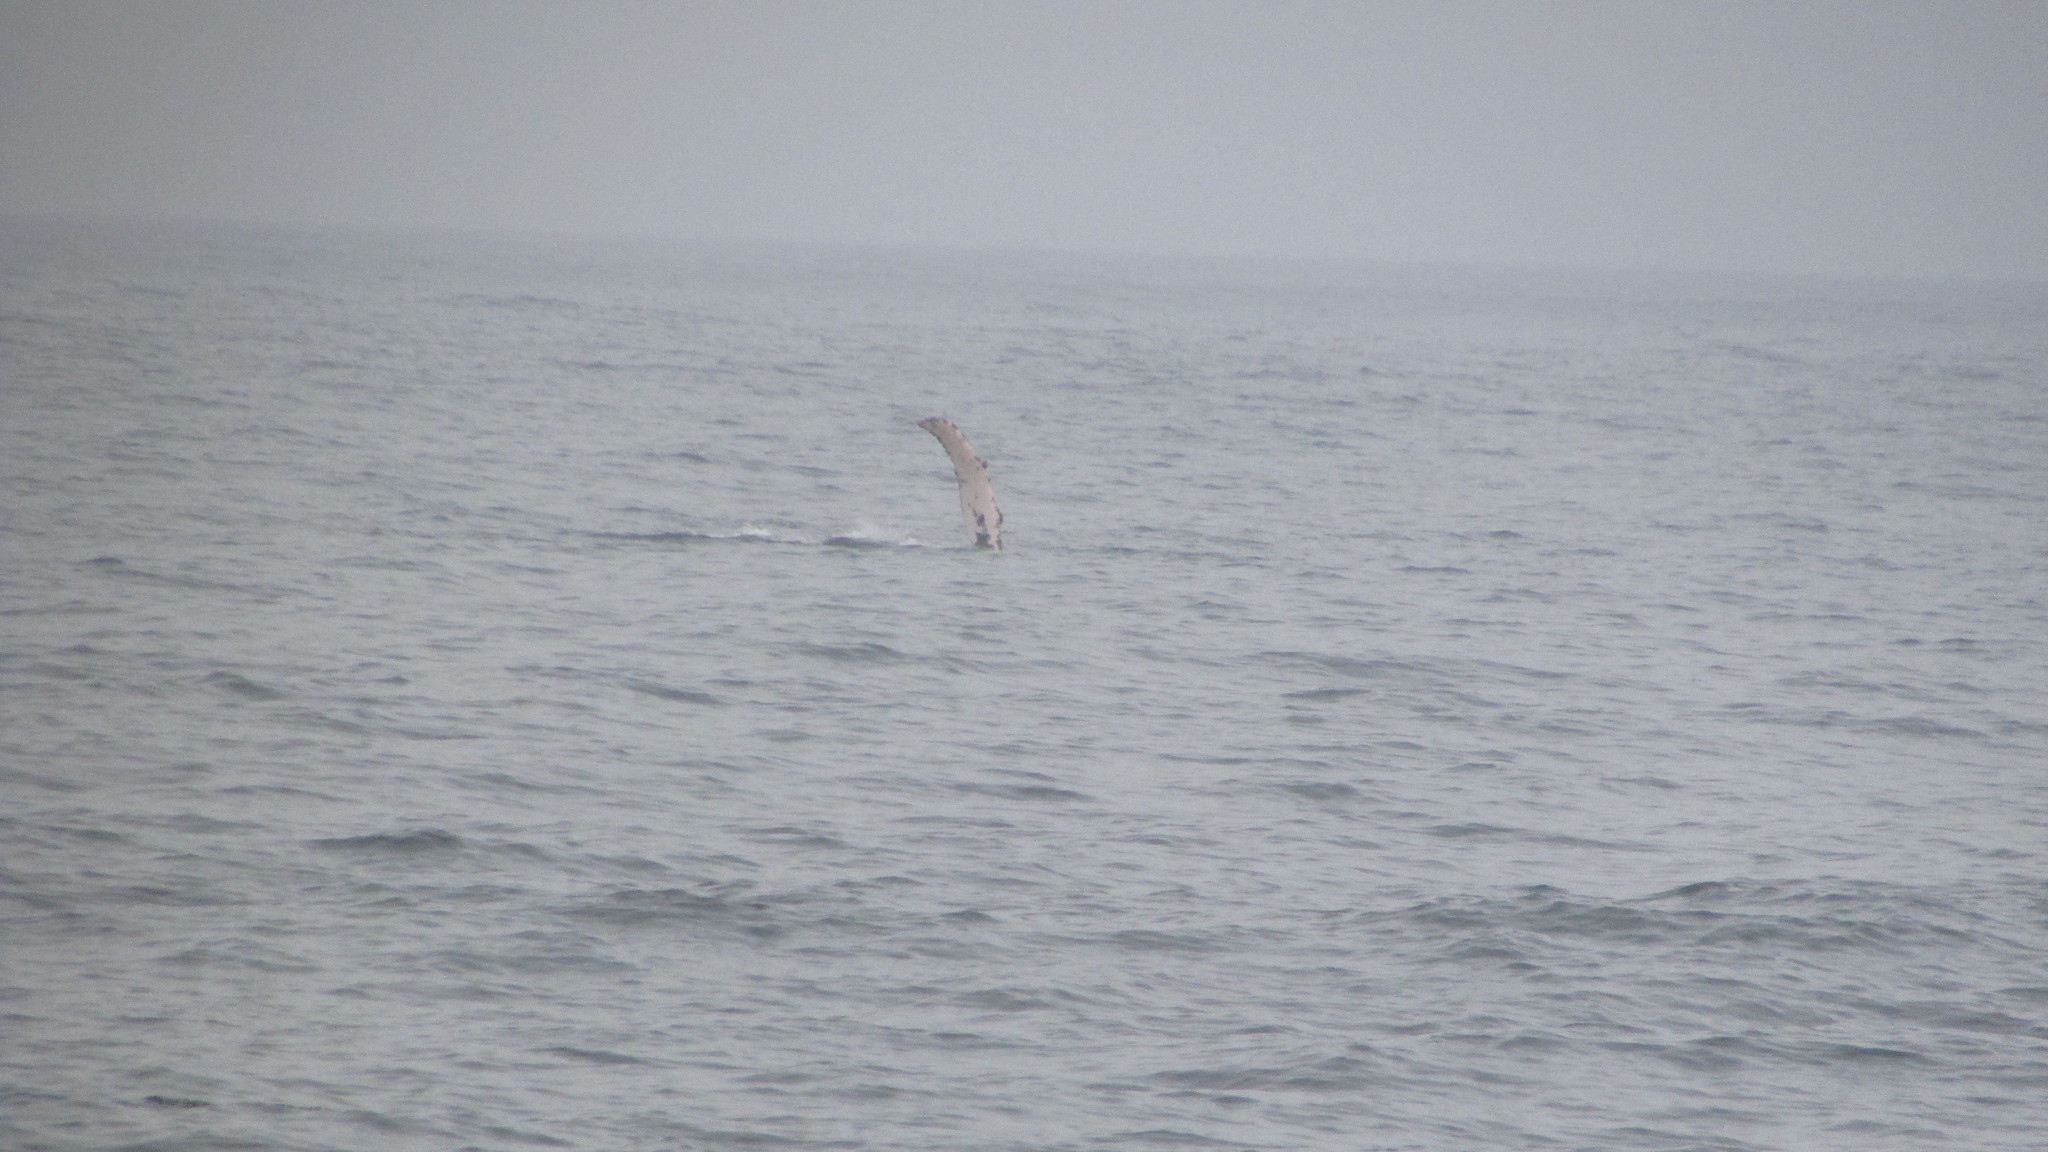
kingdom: Animalia
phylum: Chordata
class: Mammalia
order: Cetacea
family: Balaenopteridae
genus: Megaptera
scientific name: Megaptera novaeangliae
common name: Humpback whale
